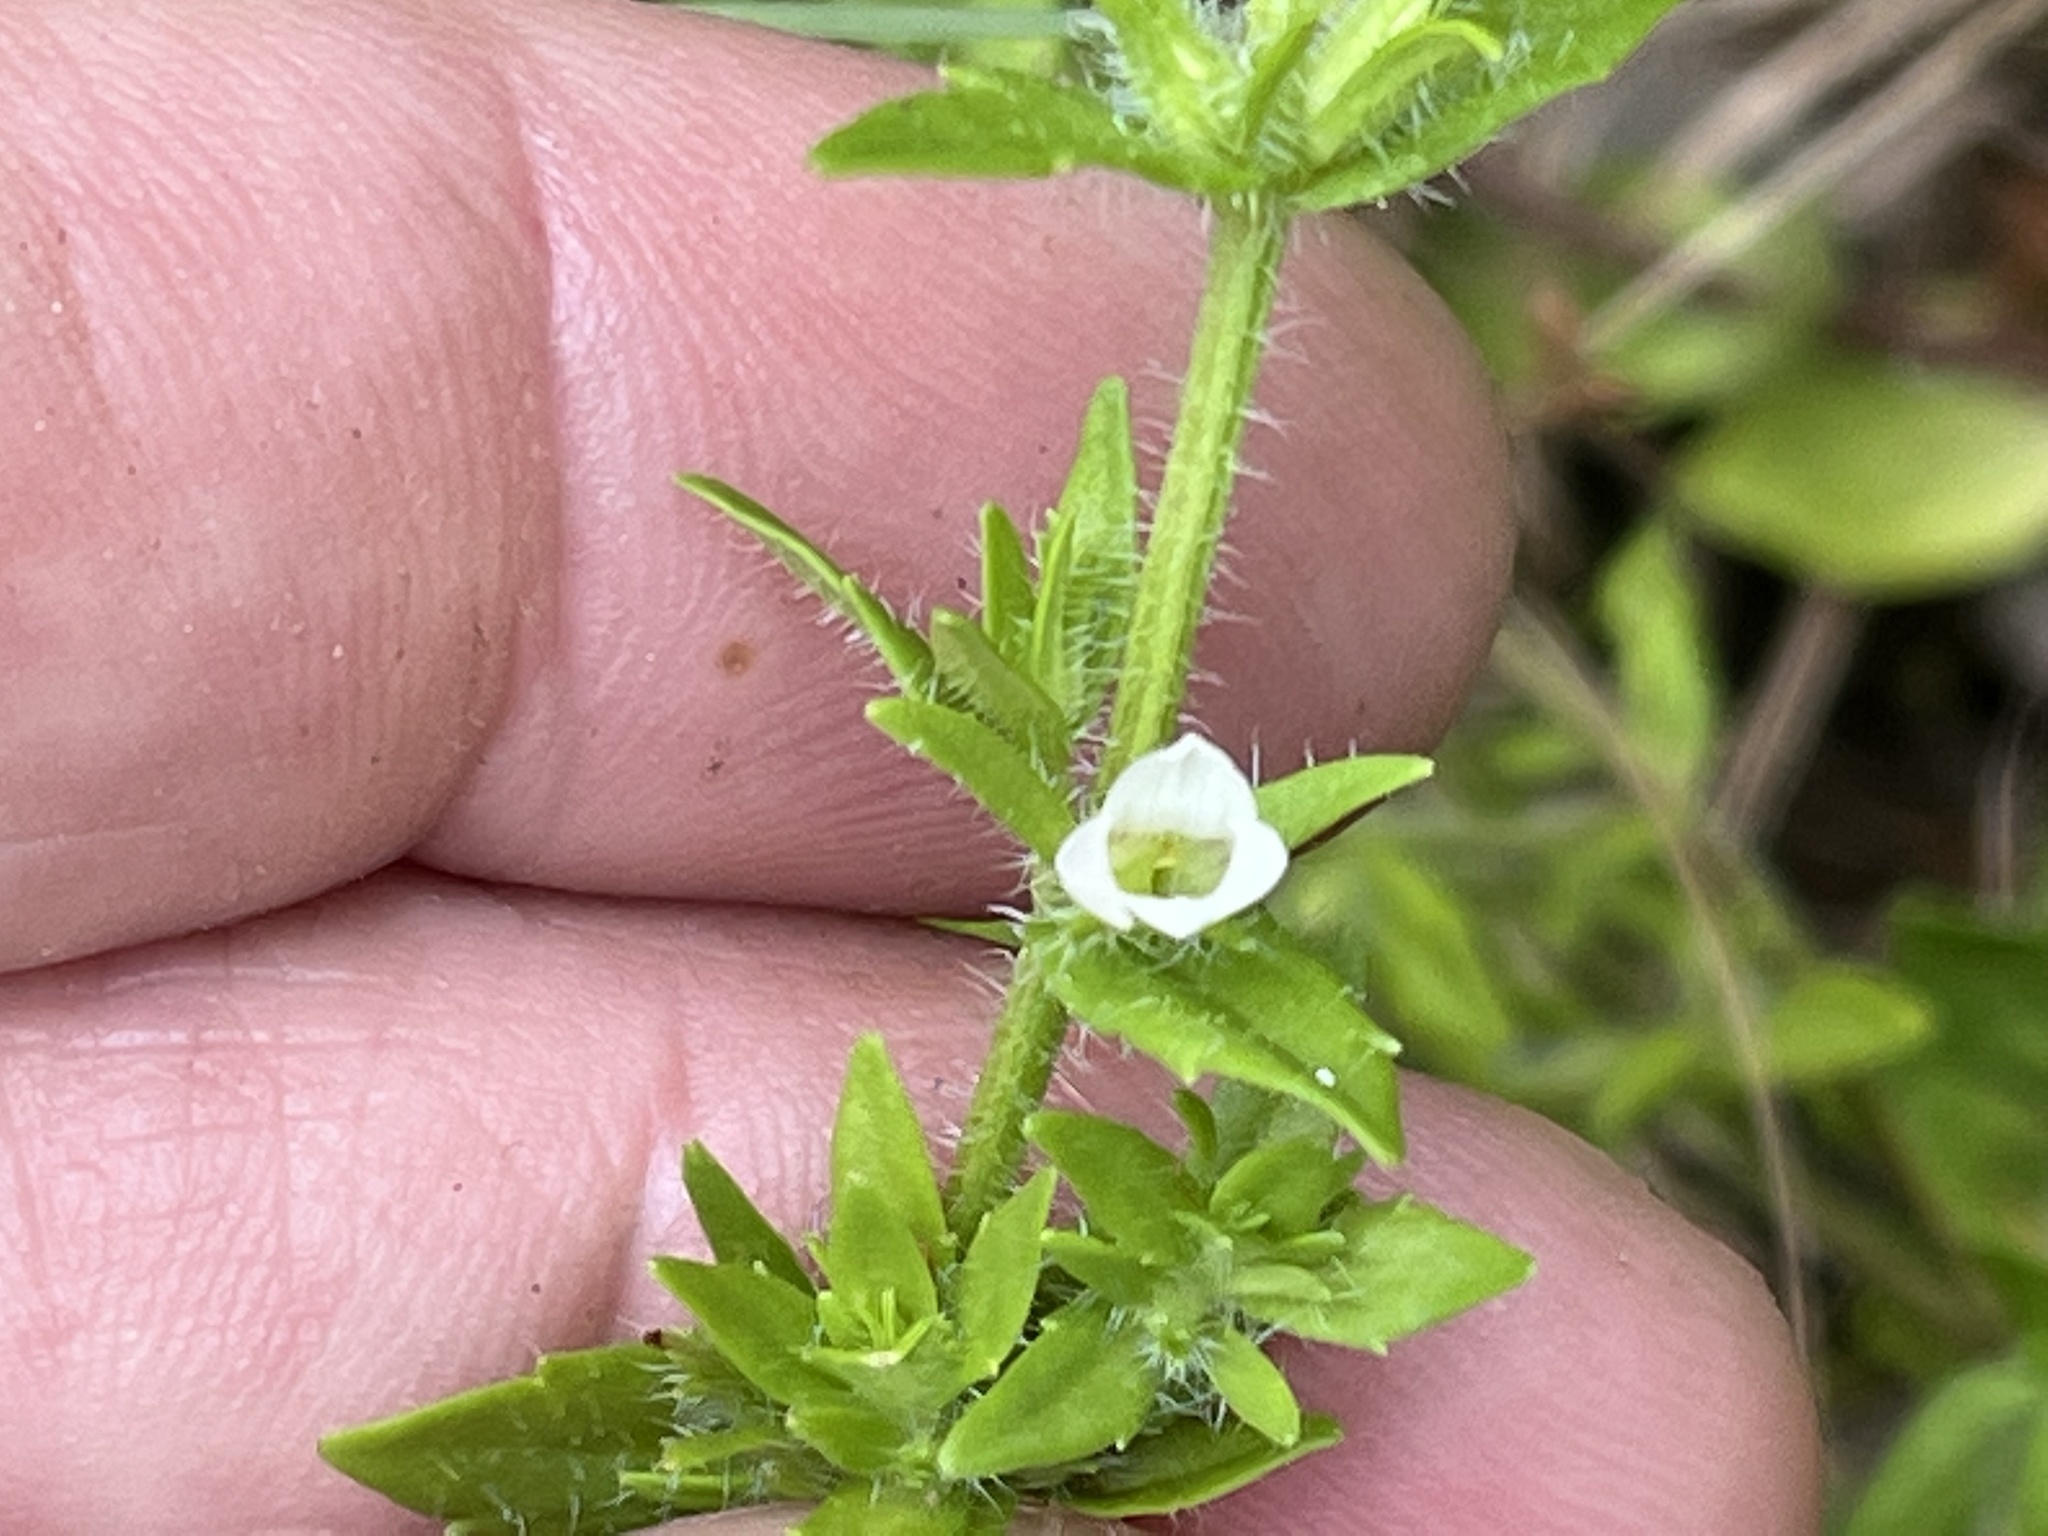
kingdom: Plantae
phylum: Tracheophyta
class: Magnoliopsida
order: Lamiales
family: Plantaginaceae
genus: Gratiola
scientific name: Gratiola pilosa
